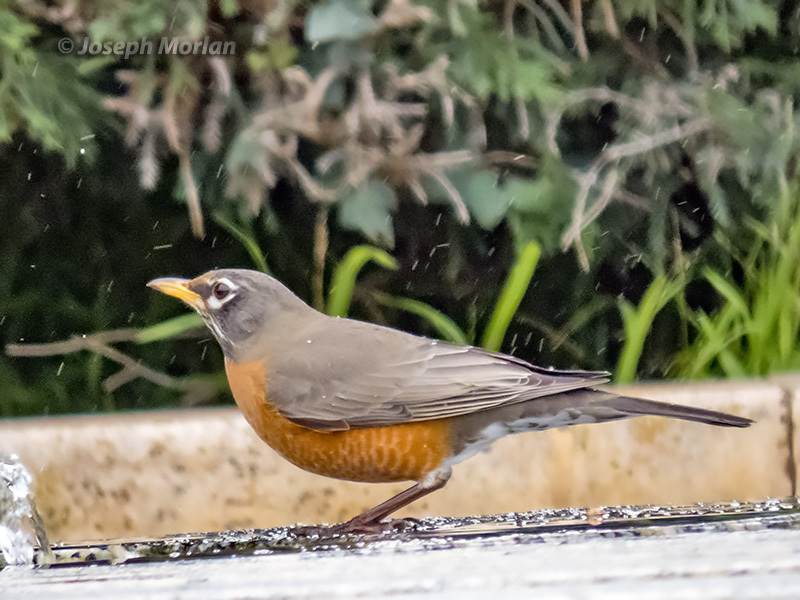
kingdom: Animalia
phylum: Chordata
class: Aves
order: Passeriformes
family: Turdidae
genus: Turdus
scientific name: Turdus migratorius
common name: American robin
